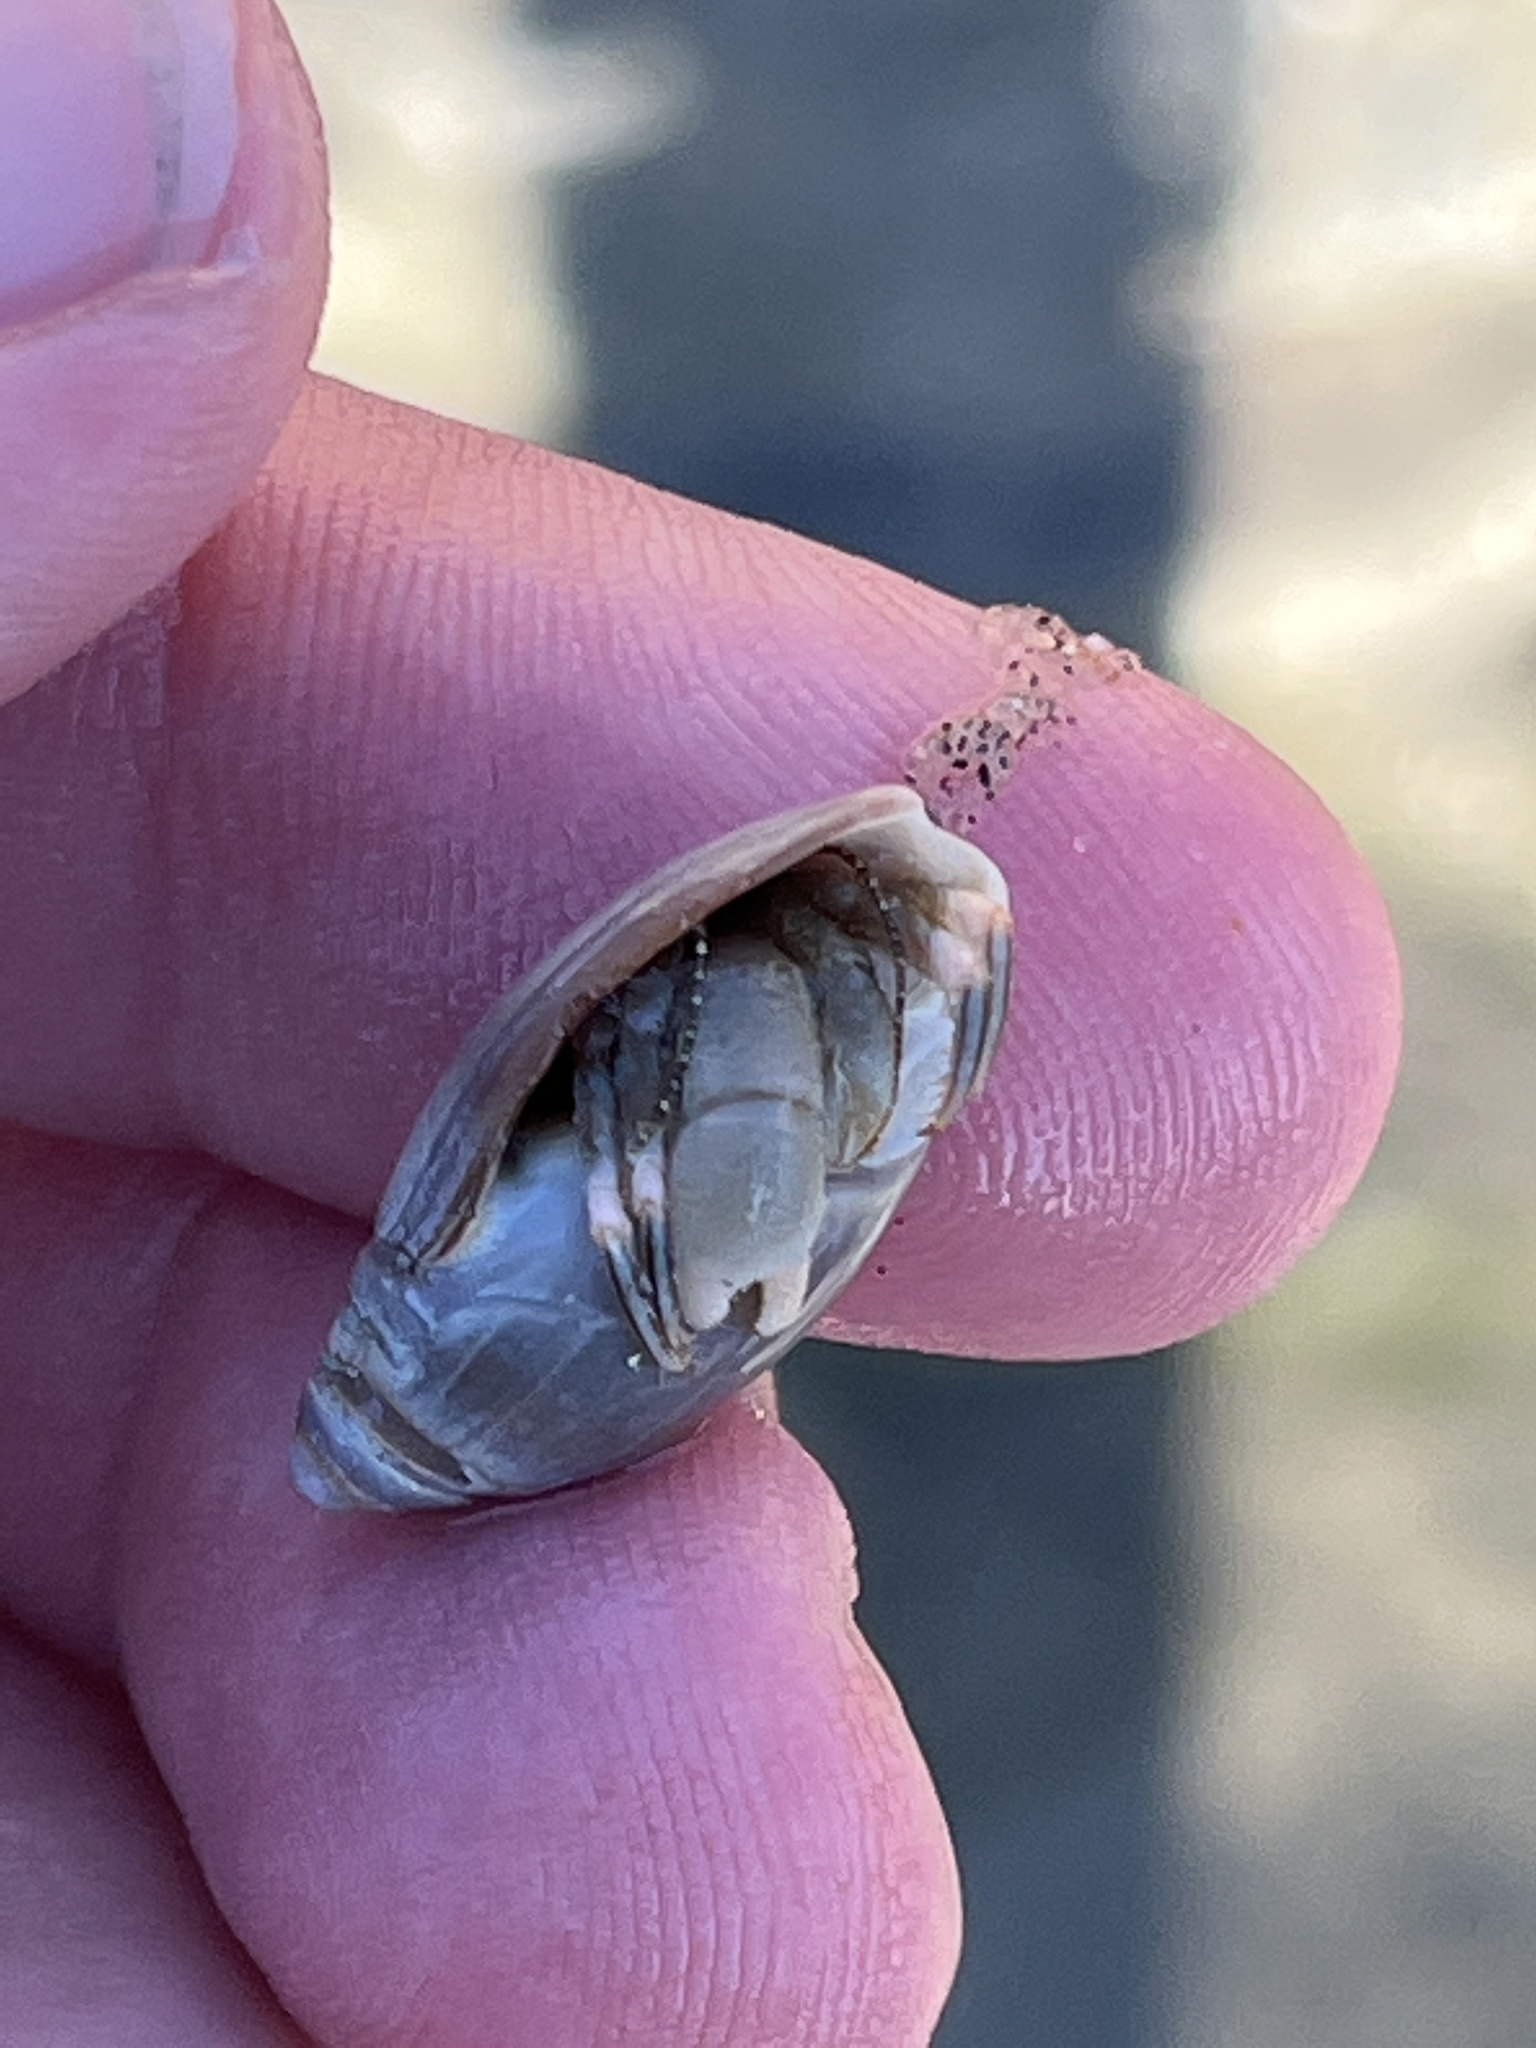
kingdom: Animalia
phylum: Arthropoda
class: Malacostraca
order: Decapoda
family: Paguridae
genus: Pagurus
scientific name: Pagurus venturensis
